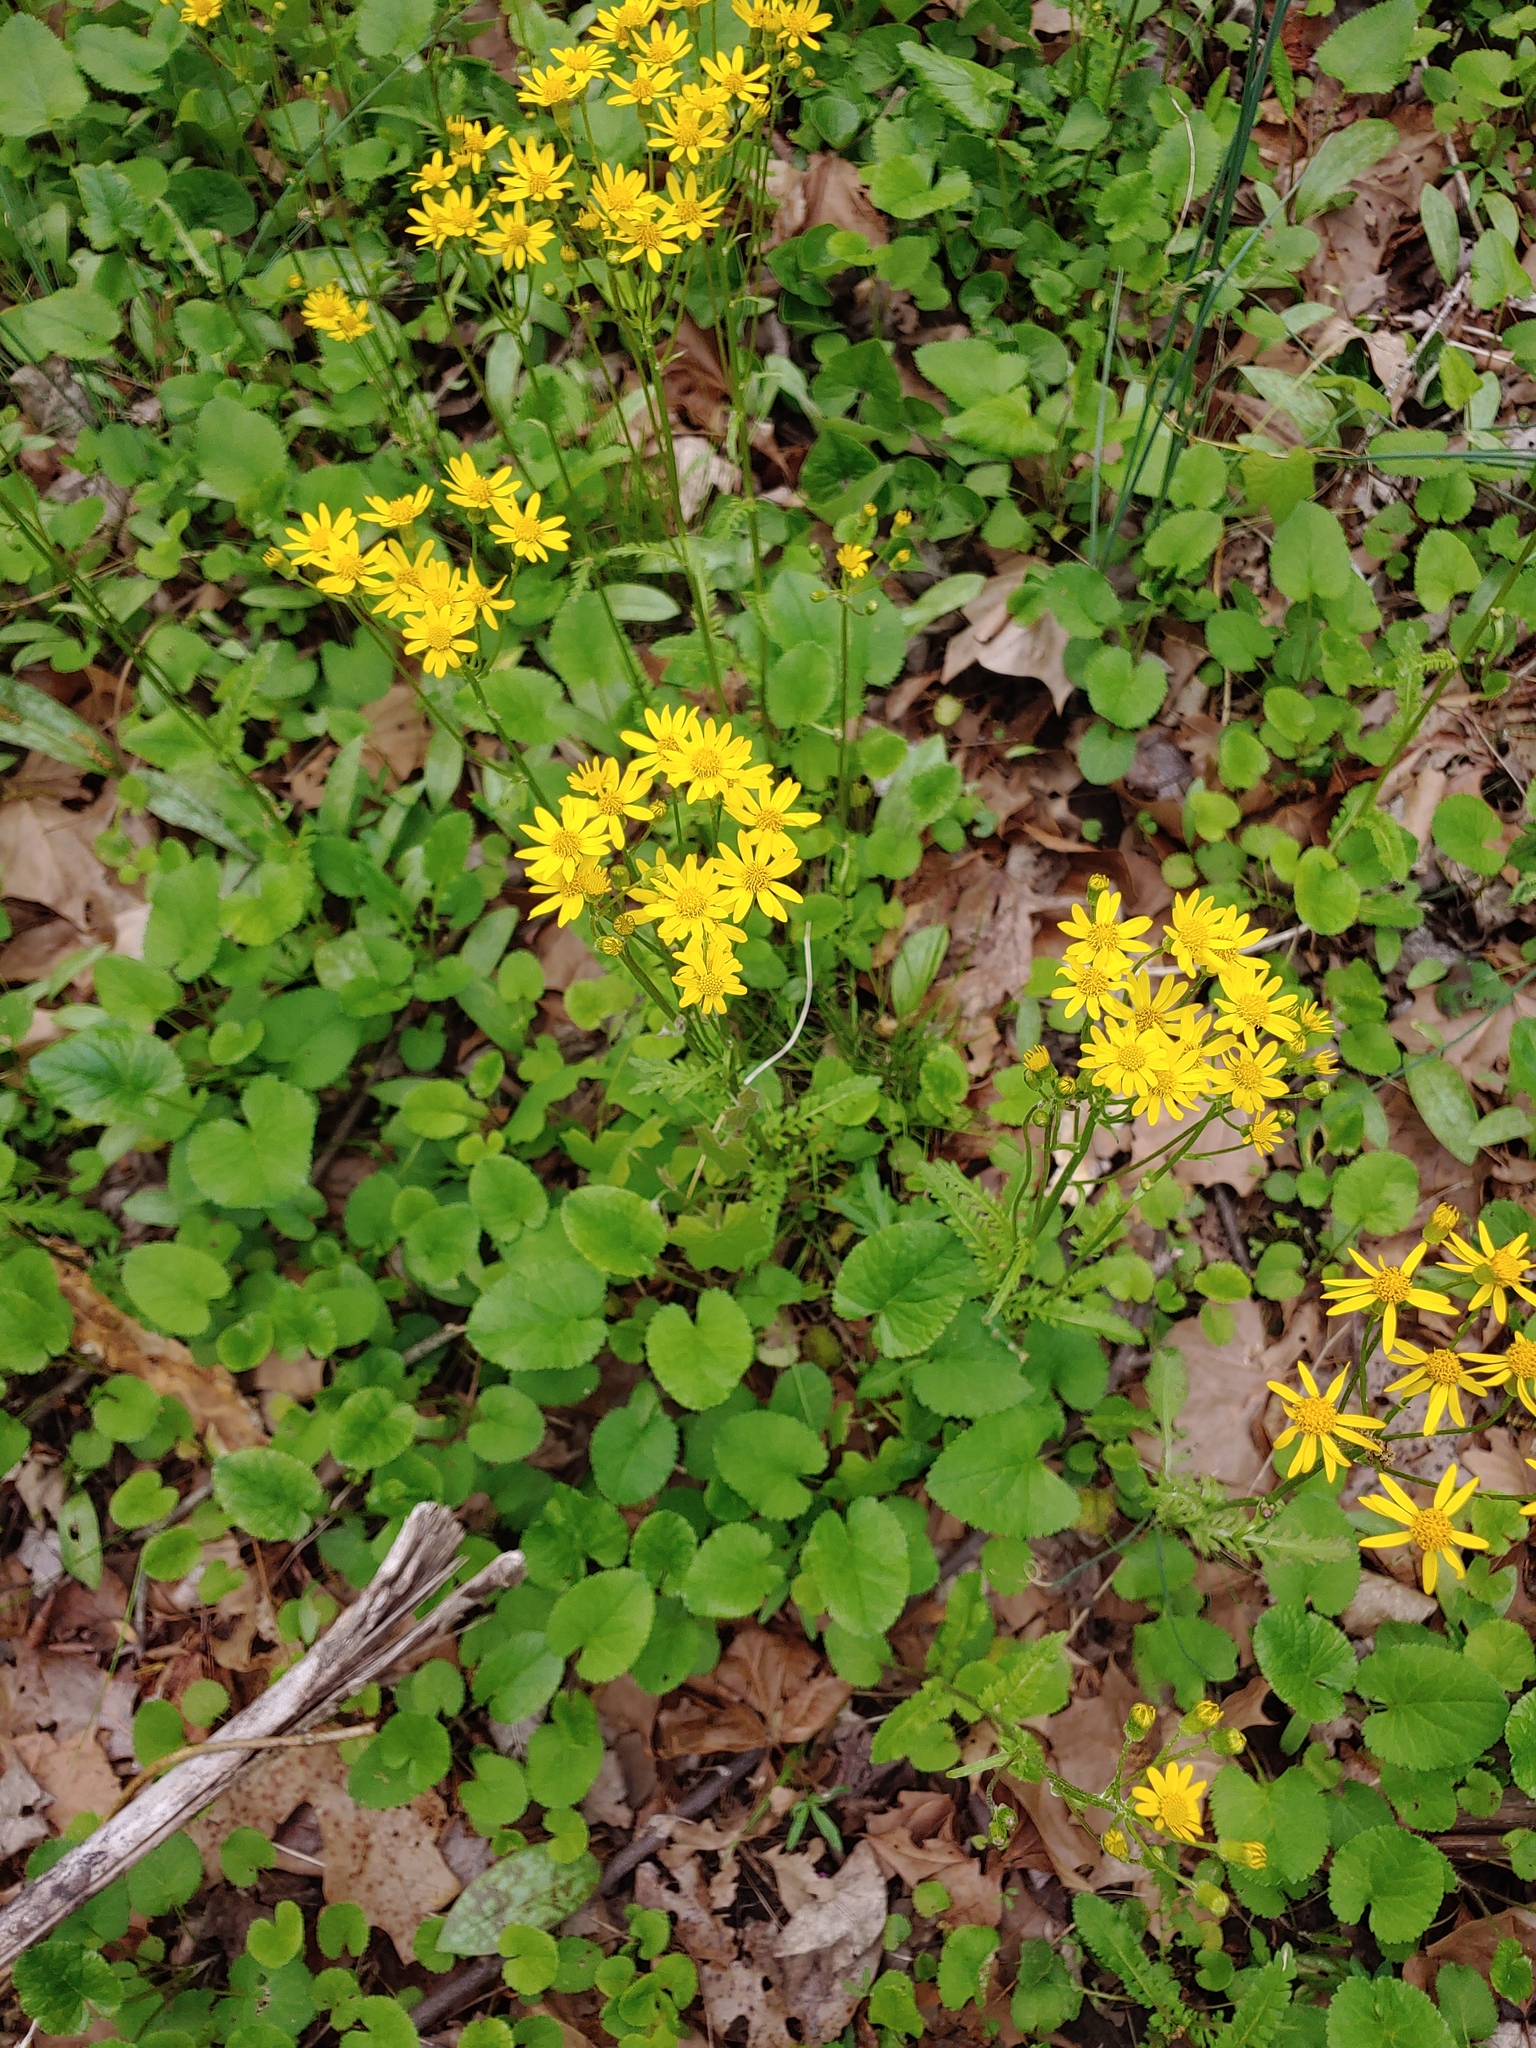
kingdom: Plantae
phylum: Tracheophyta
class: Magnoliopsida
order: Asterales
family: Asteraceae
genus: Packera
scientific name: Packera aurea
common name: Golden groundsel
